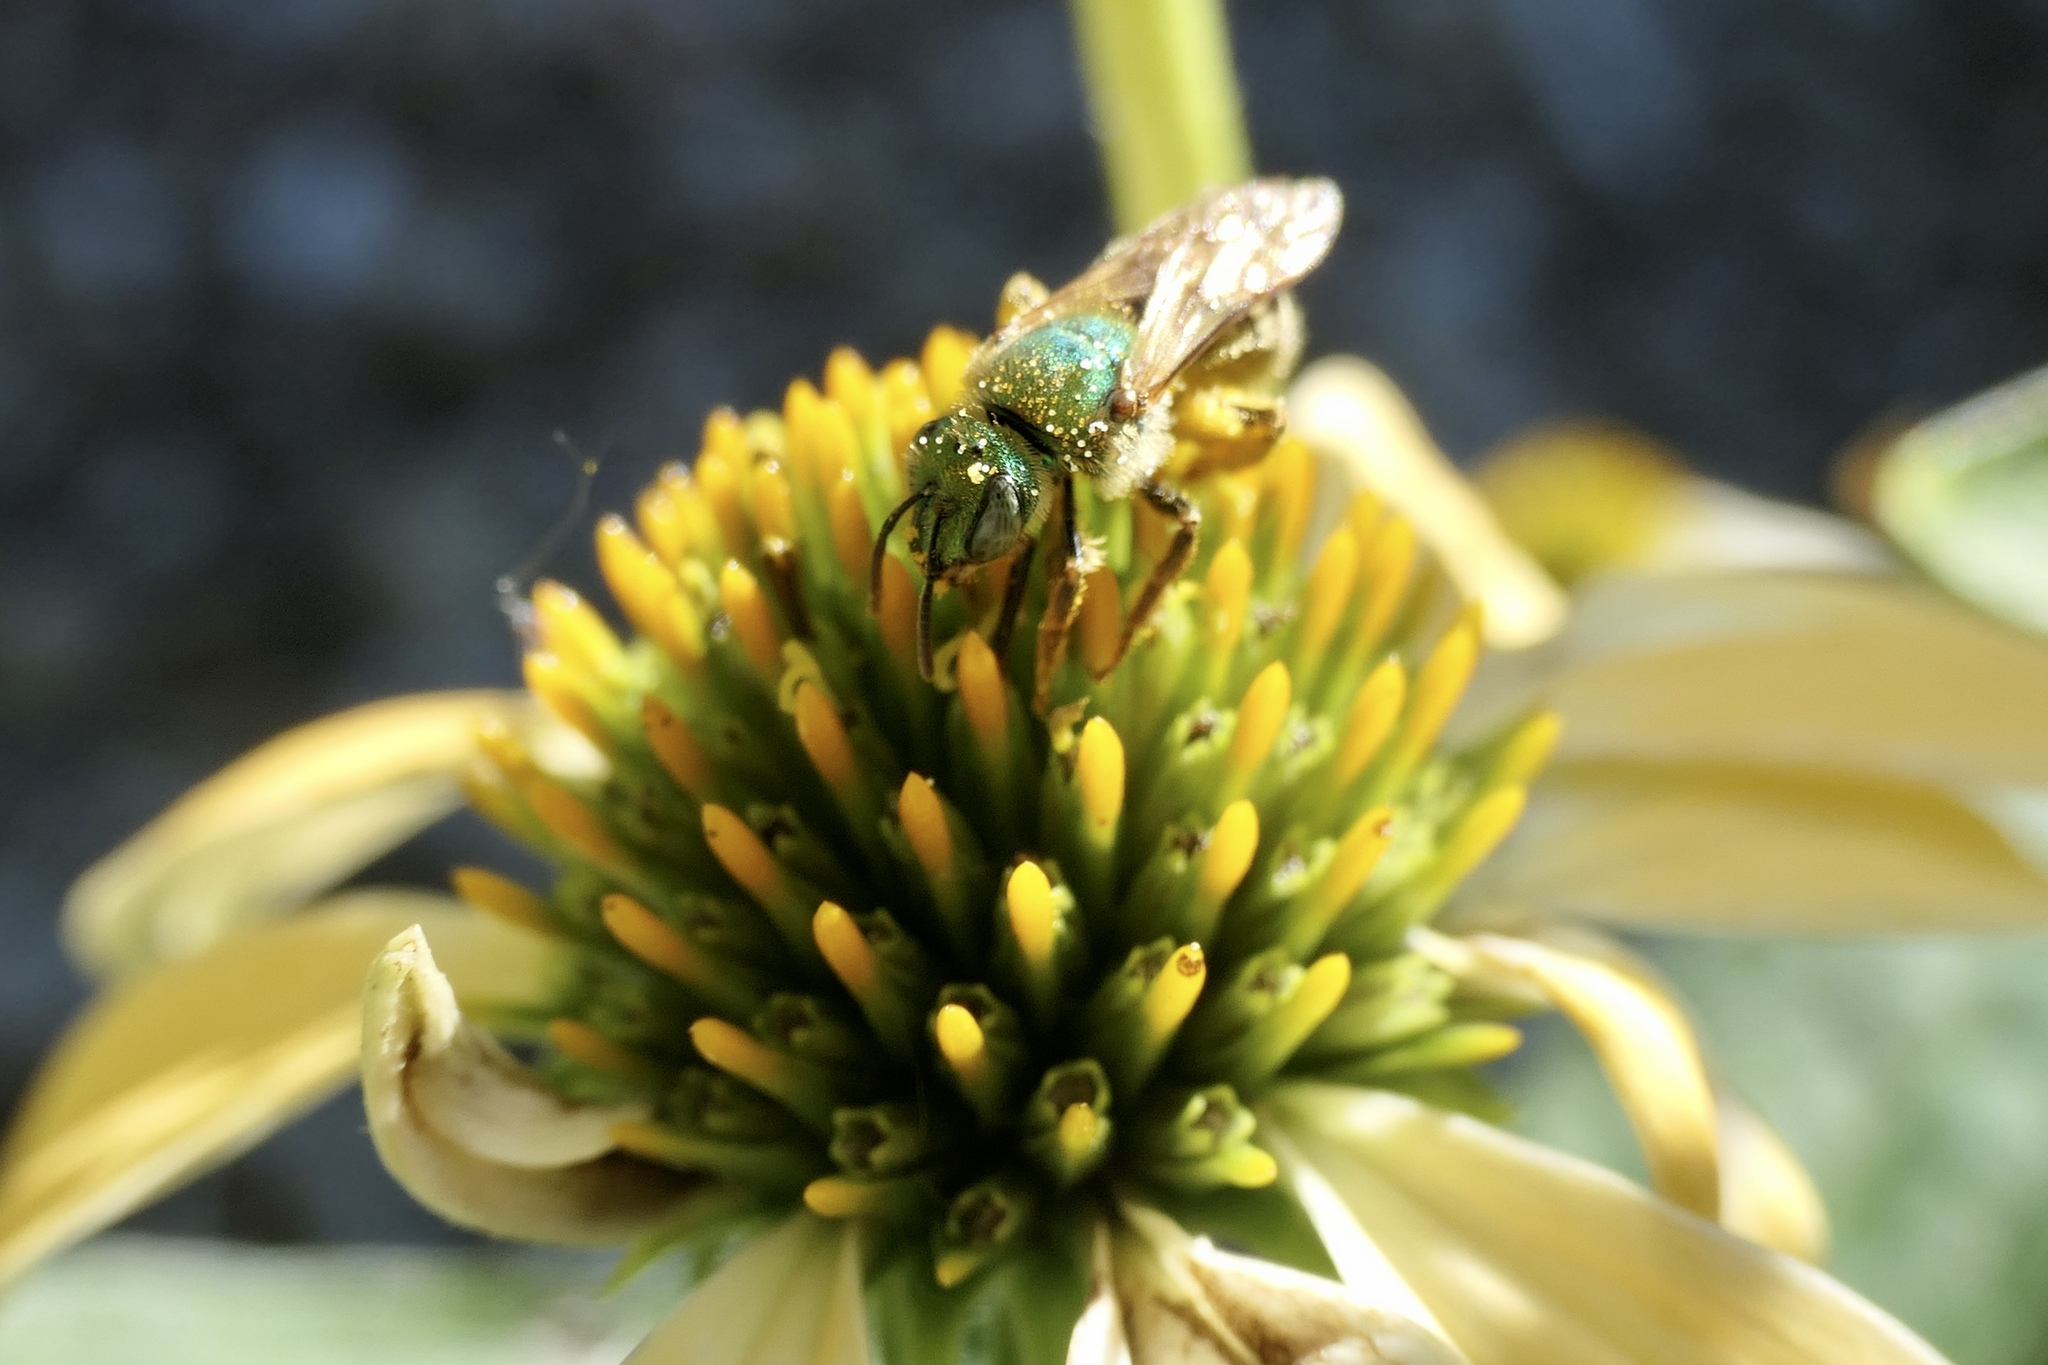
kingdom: Animalia
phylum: Arthropoda
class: Insecta
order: Hymenoptera
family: Halictidae
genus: Agapostemon
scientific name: Agapostemon virescens
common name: Bicolored striped sweat bee
